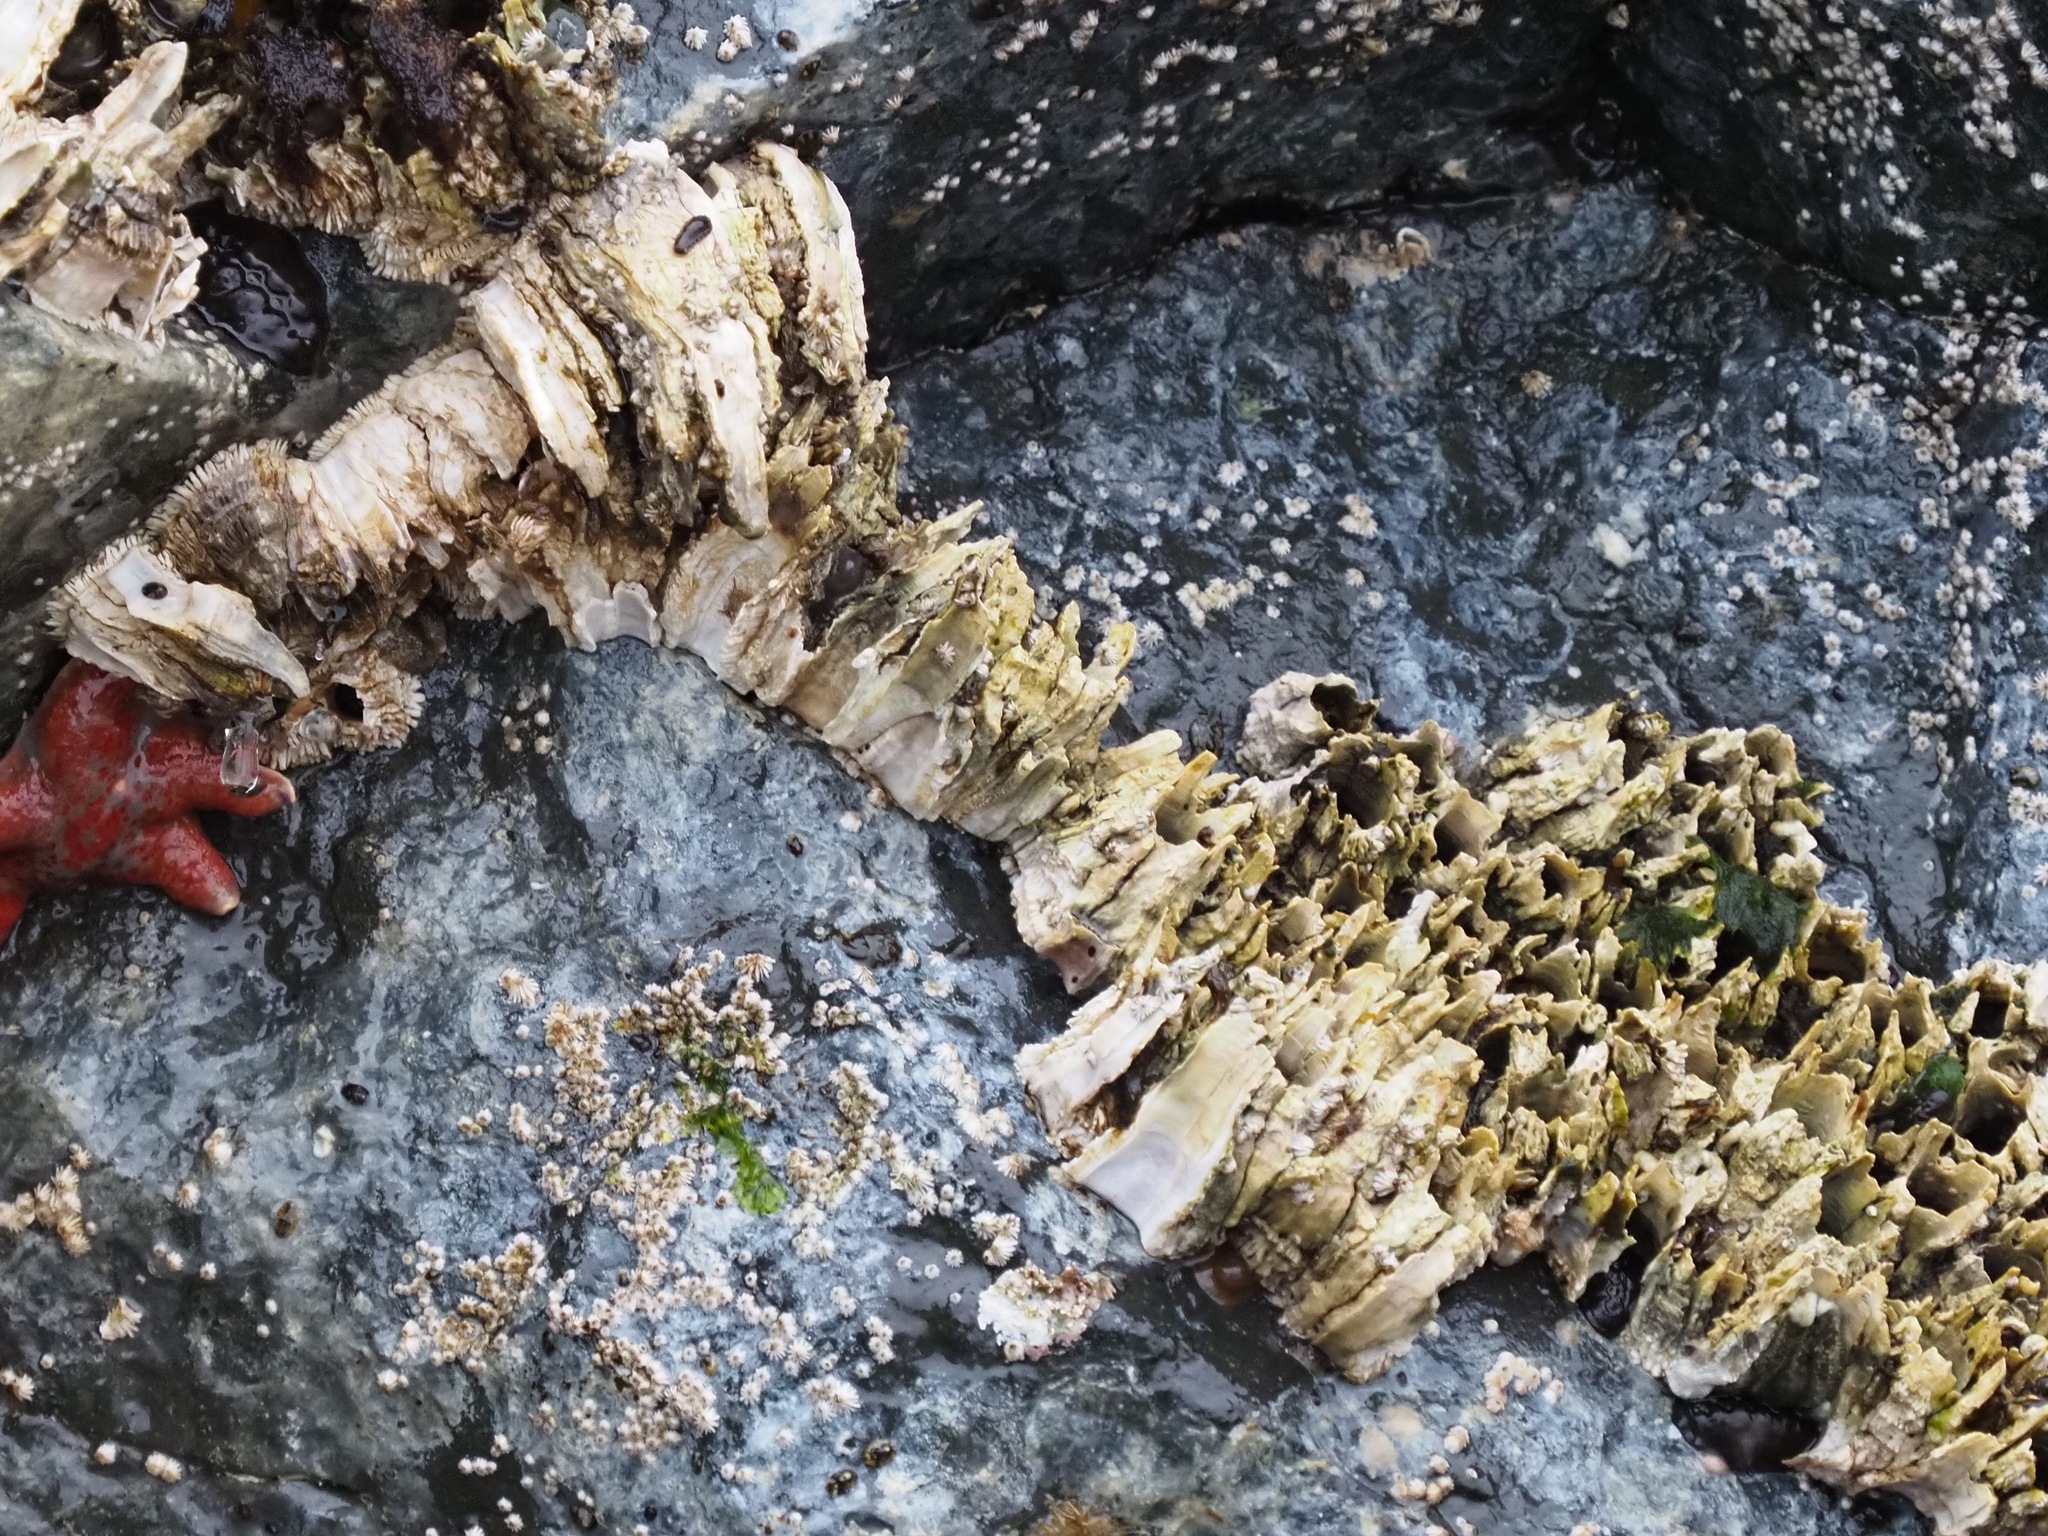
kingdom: Animalia
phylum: Arthropoda
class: Maxillopoda
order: Sessilia
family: Archaeobalanidae
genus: Semibalanus
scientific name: Semibalanus cariosus
